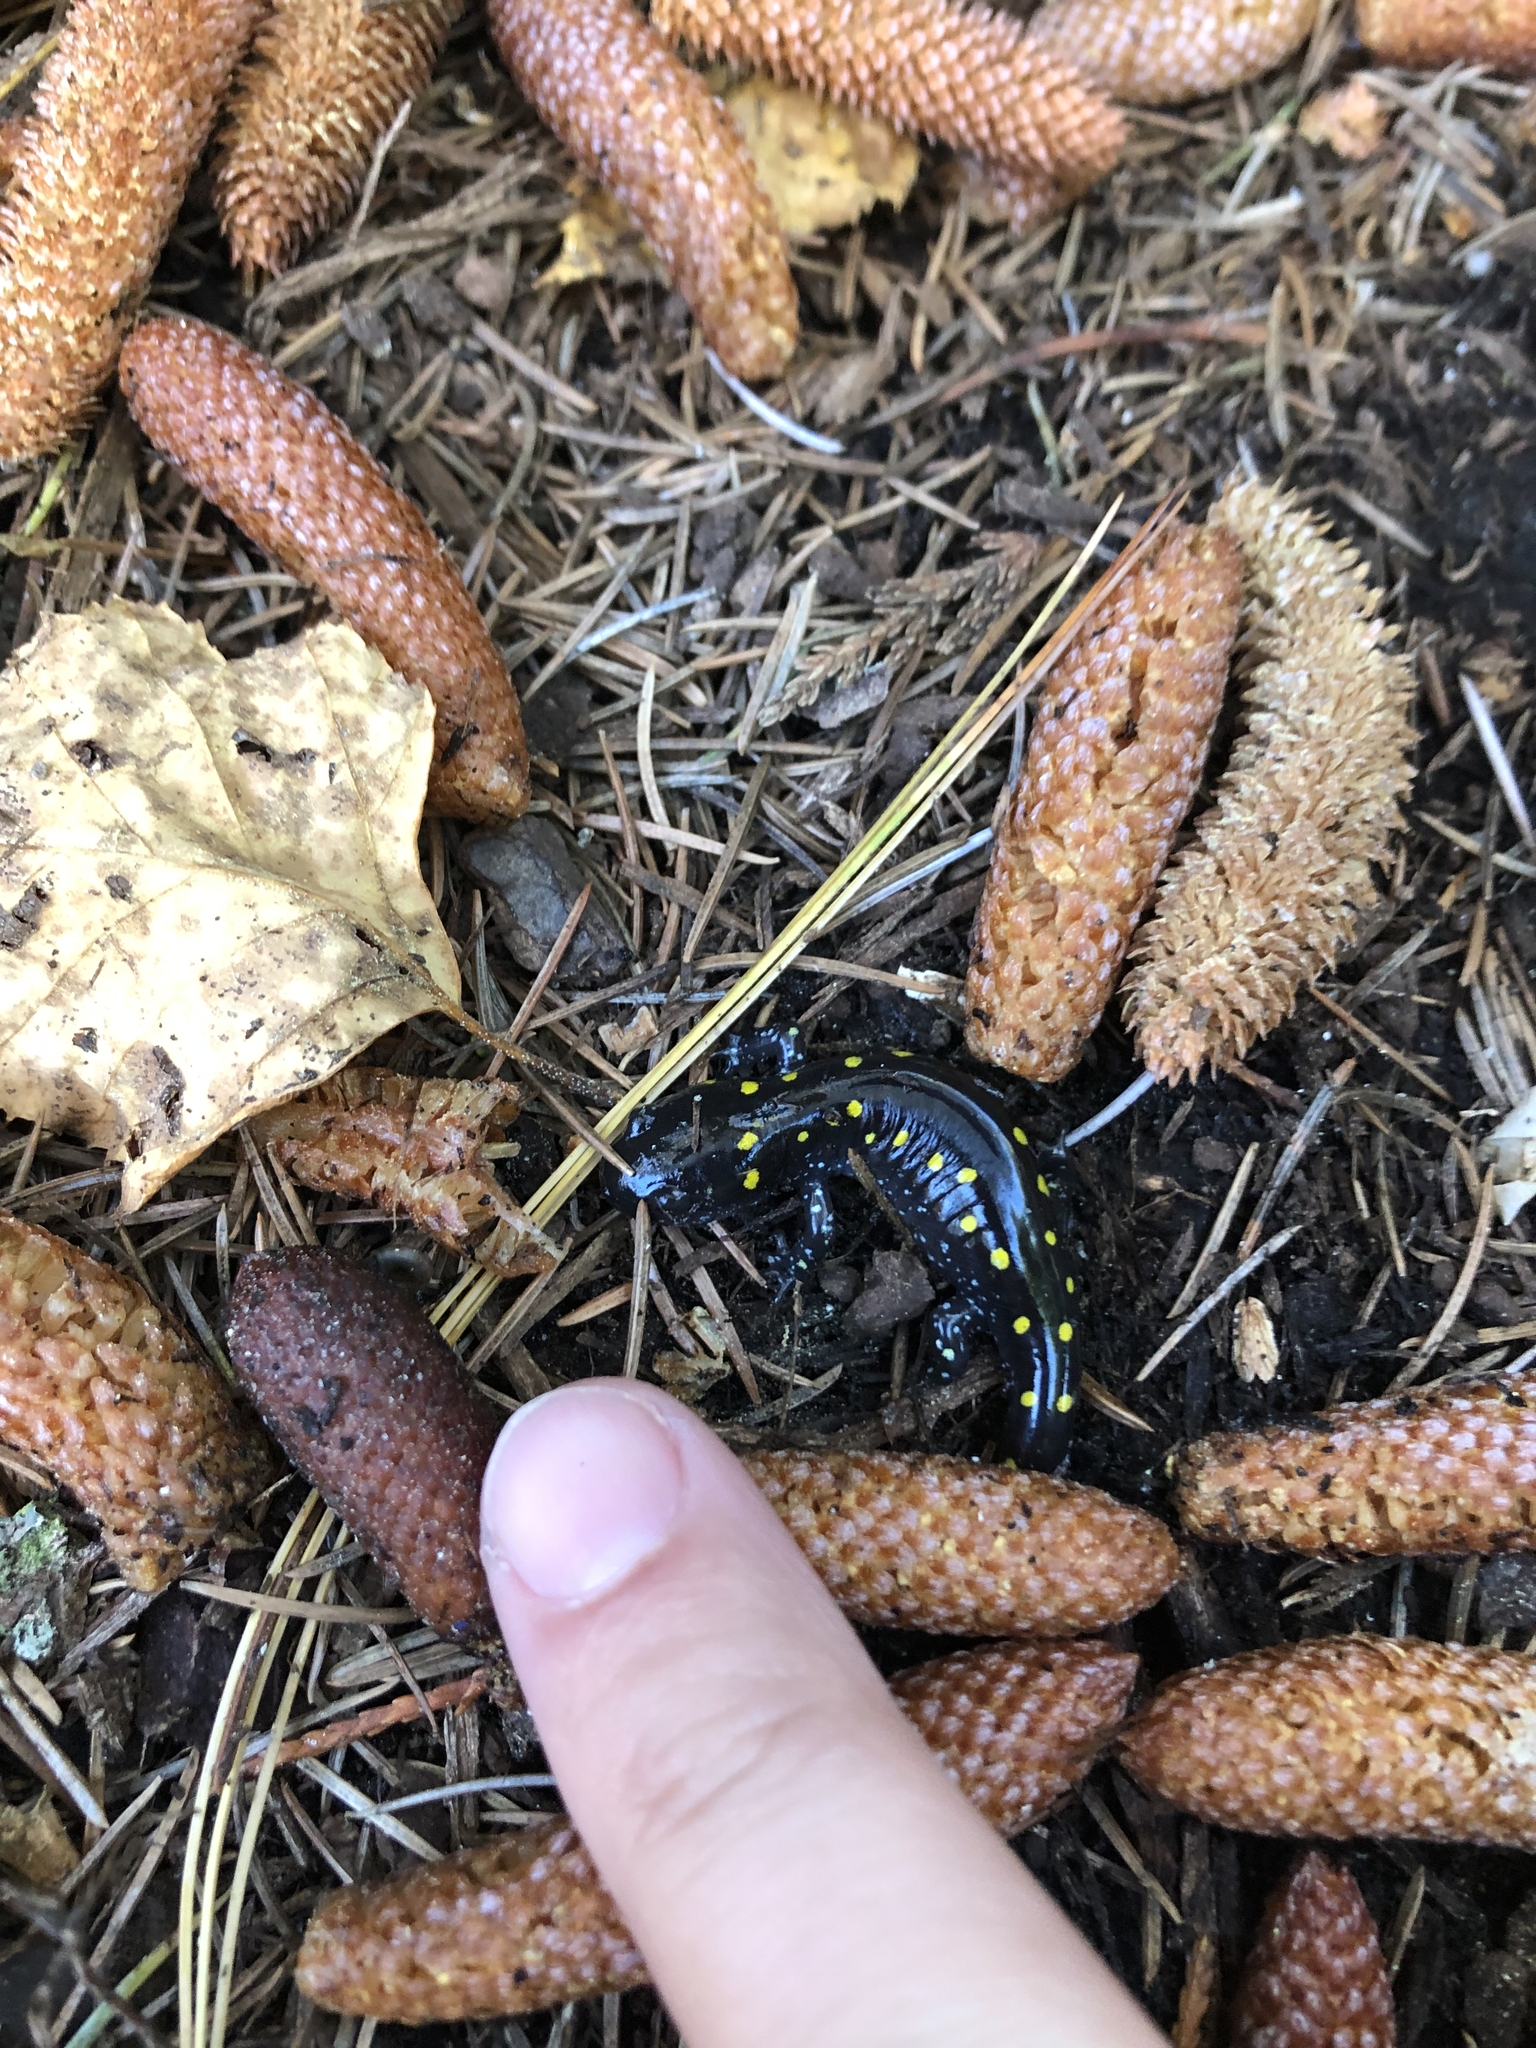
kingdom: Animalia
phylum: Chordata
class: Amphibia
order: Caudata
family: Ambystomatidae
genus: Ambystoma
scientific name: Ambystoma maculatum
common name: Spotted salamander
